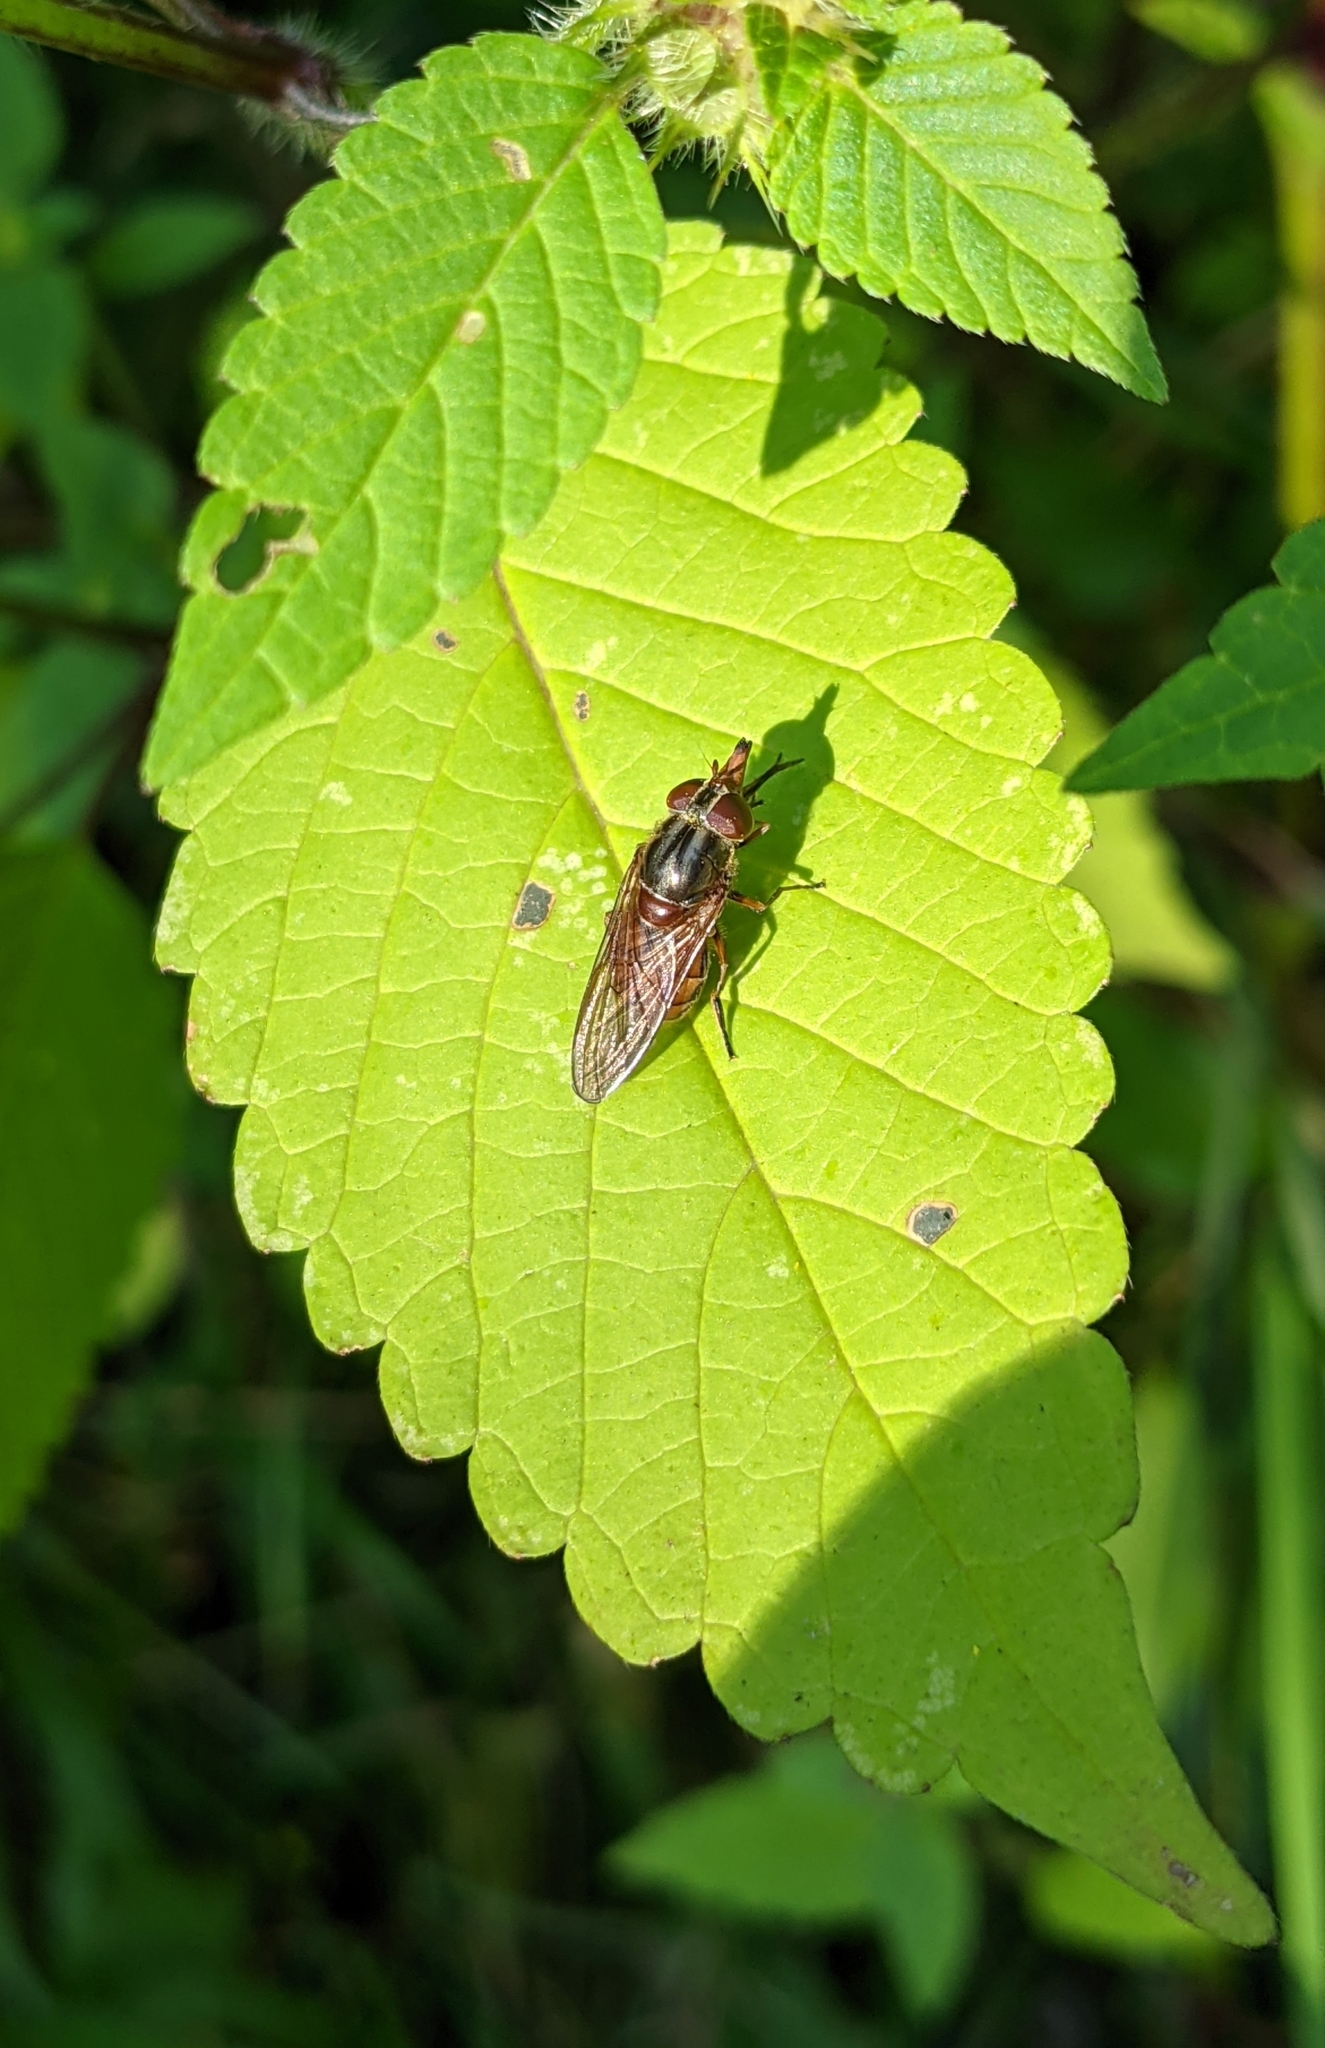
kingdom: Animalia
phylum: Arthropoda
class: Insecta
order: Diptera
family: Syrphidae
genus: Rhingia
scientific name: Rhingia campestris
